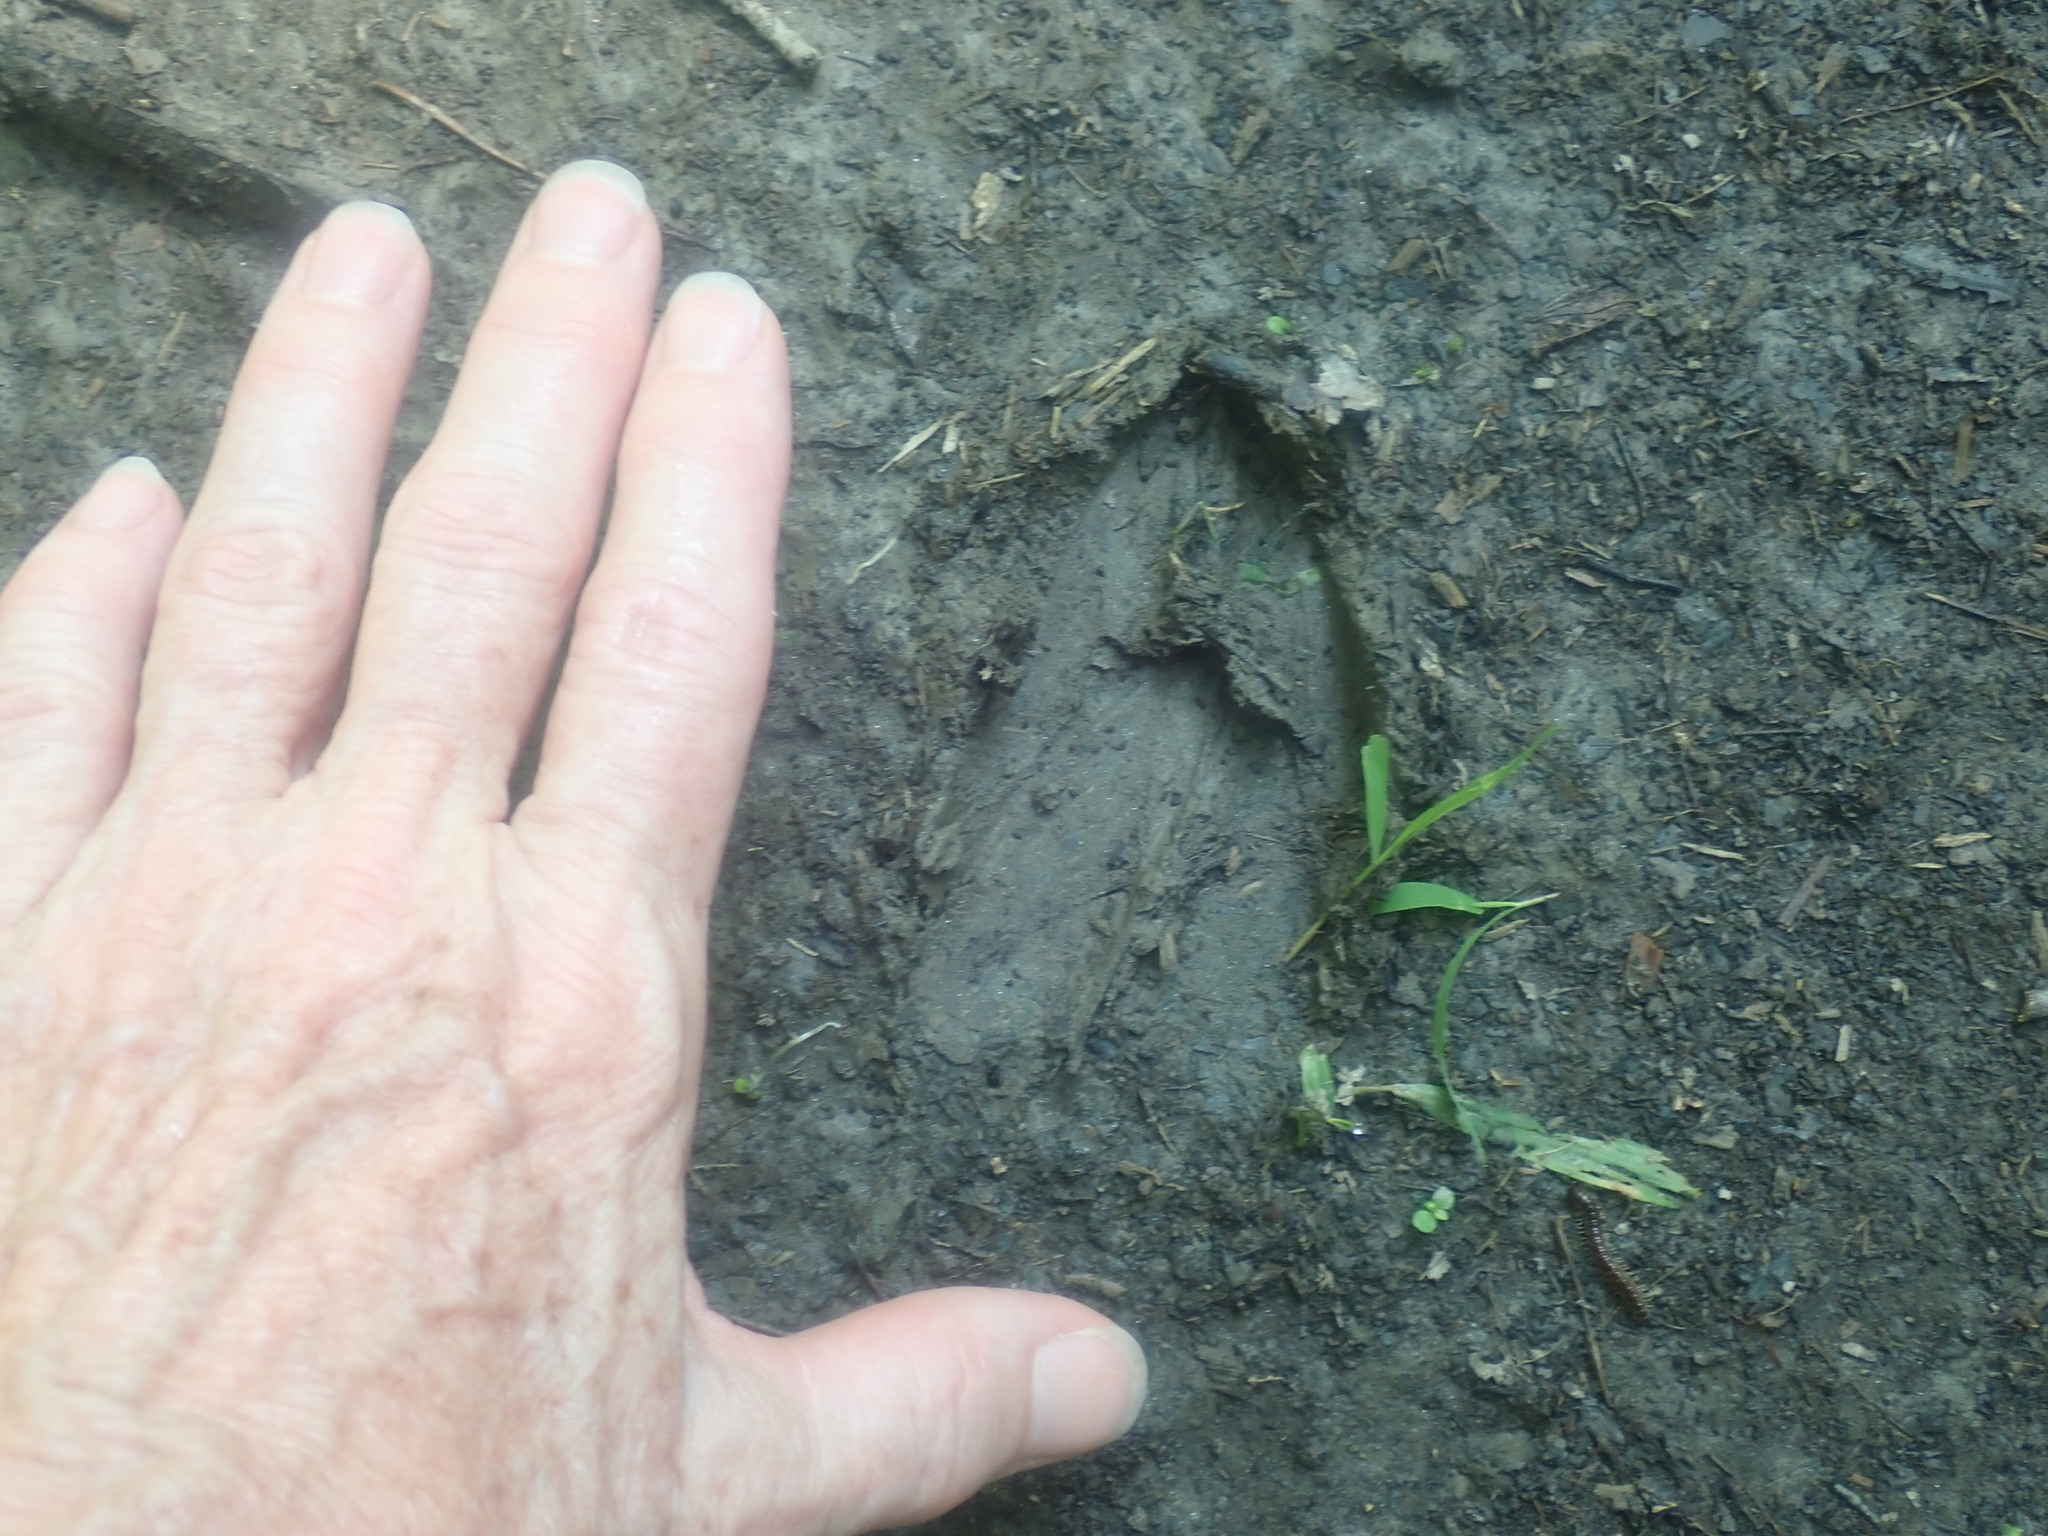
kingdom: Animalia
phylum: Chordata
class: Mammalia
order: Artiodactyla
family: Cervidae
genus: Odocoileus
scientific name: Odocoileus virginianus
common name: White-tailed deer
